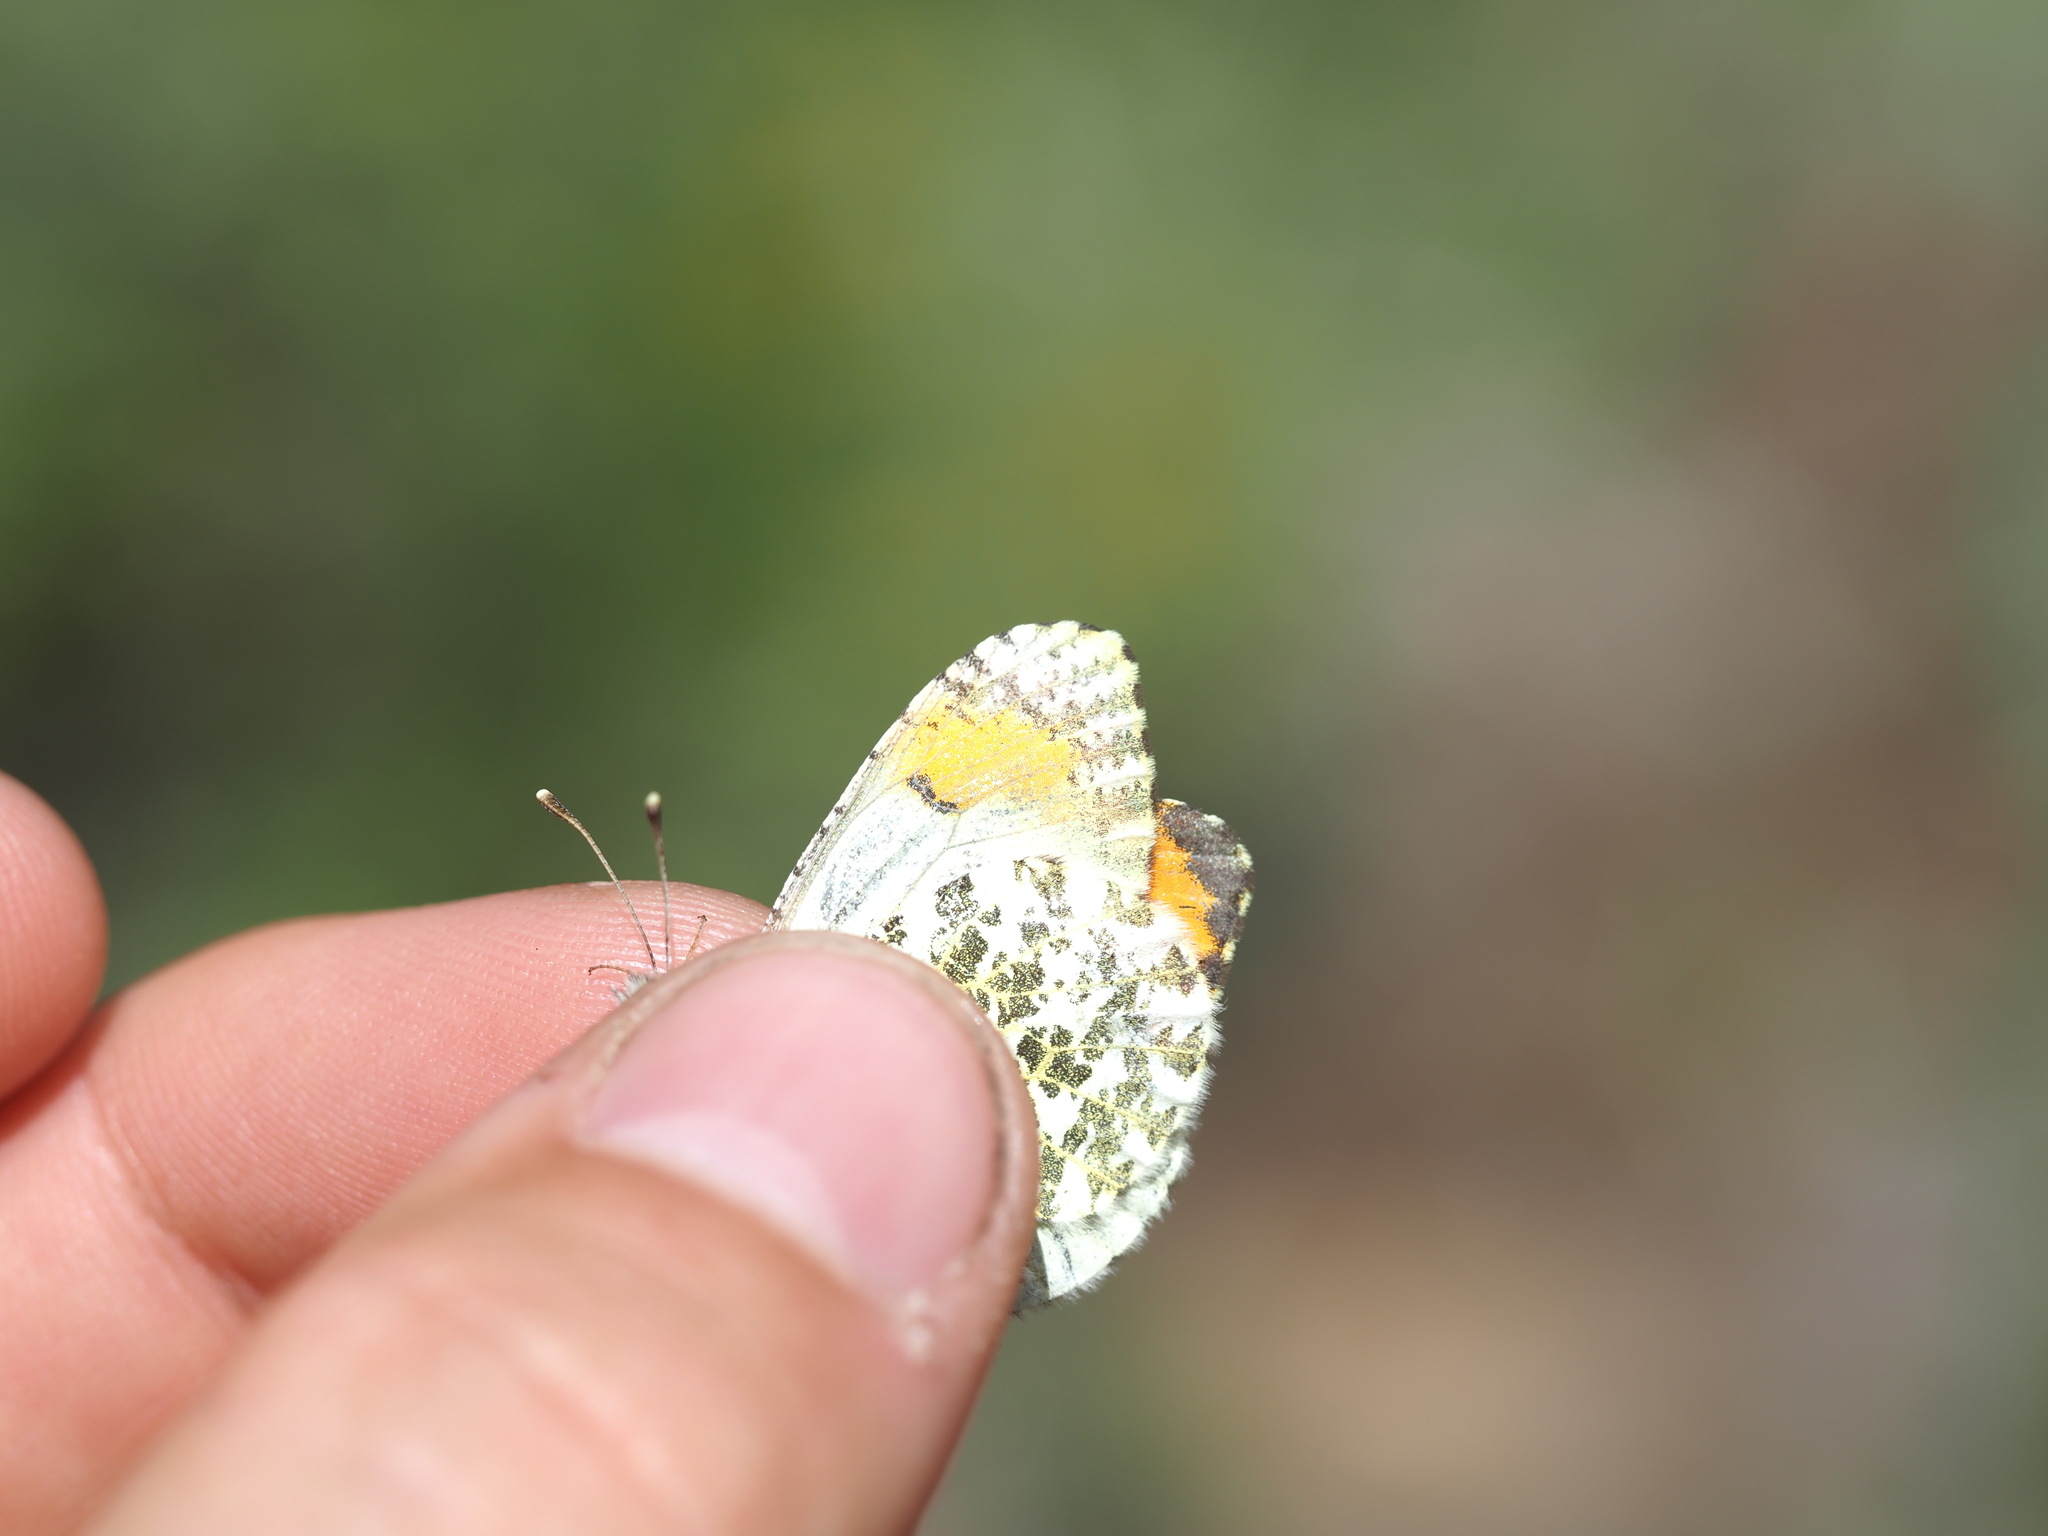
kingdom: Animalia
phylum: Arthropoda
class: Insecta
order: Lepidoptera
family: Pieridae
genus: Anthocharis
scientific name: Anthocharis julia
